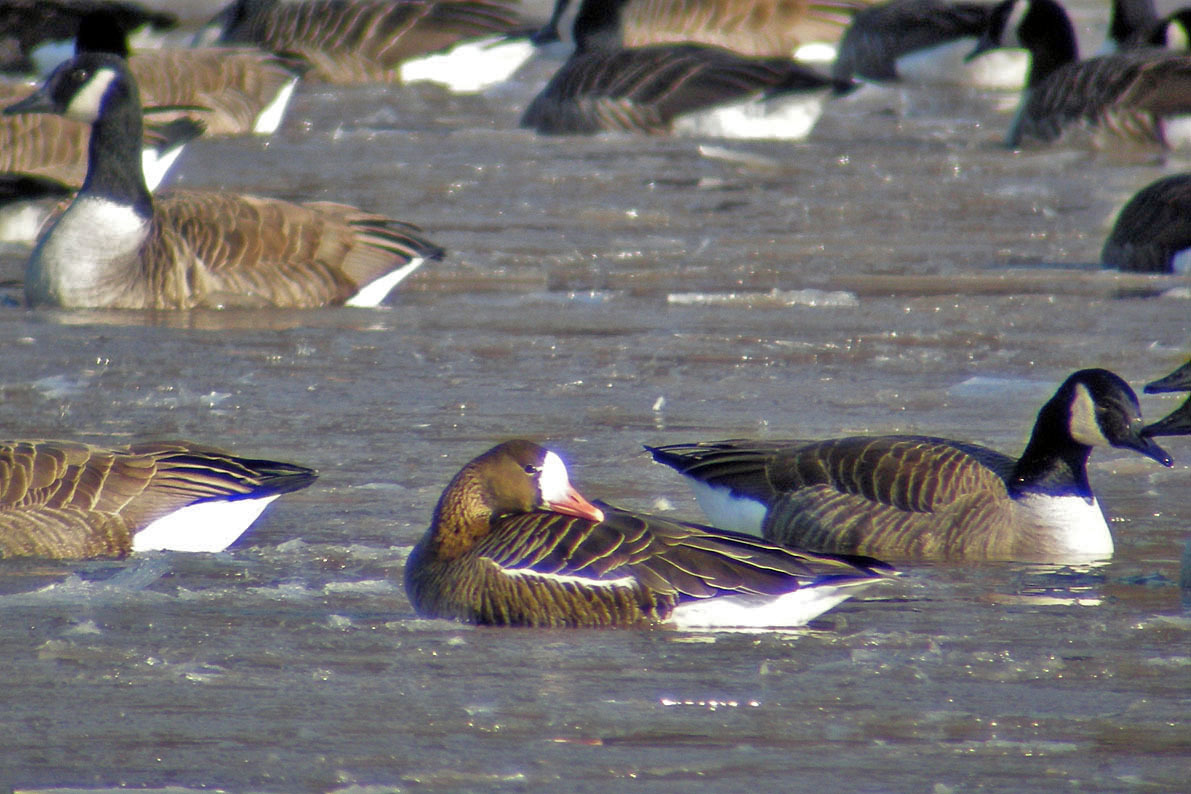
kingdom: Animalia
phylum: Chordata
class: Aves
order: Anseriformes
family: Anatidae
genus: Anser
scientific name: Anser albifrons
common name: Greater white-fronted goose
